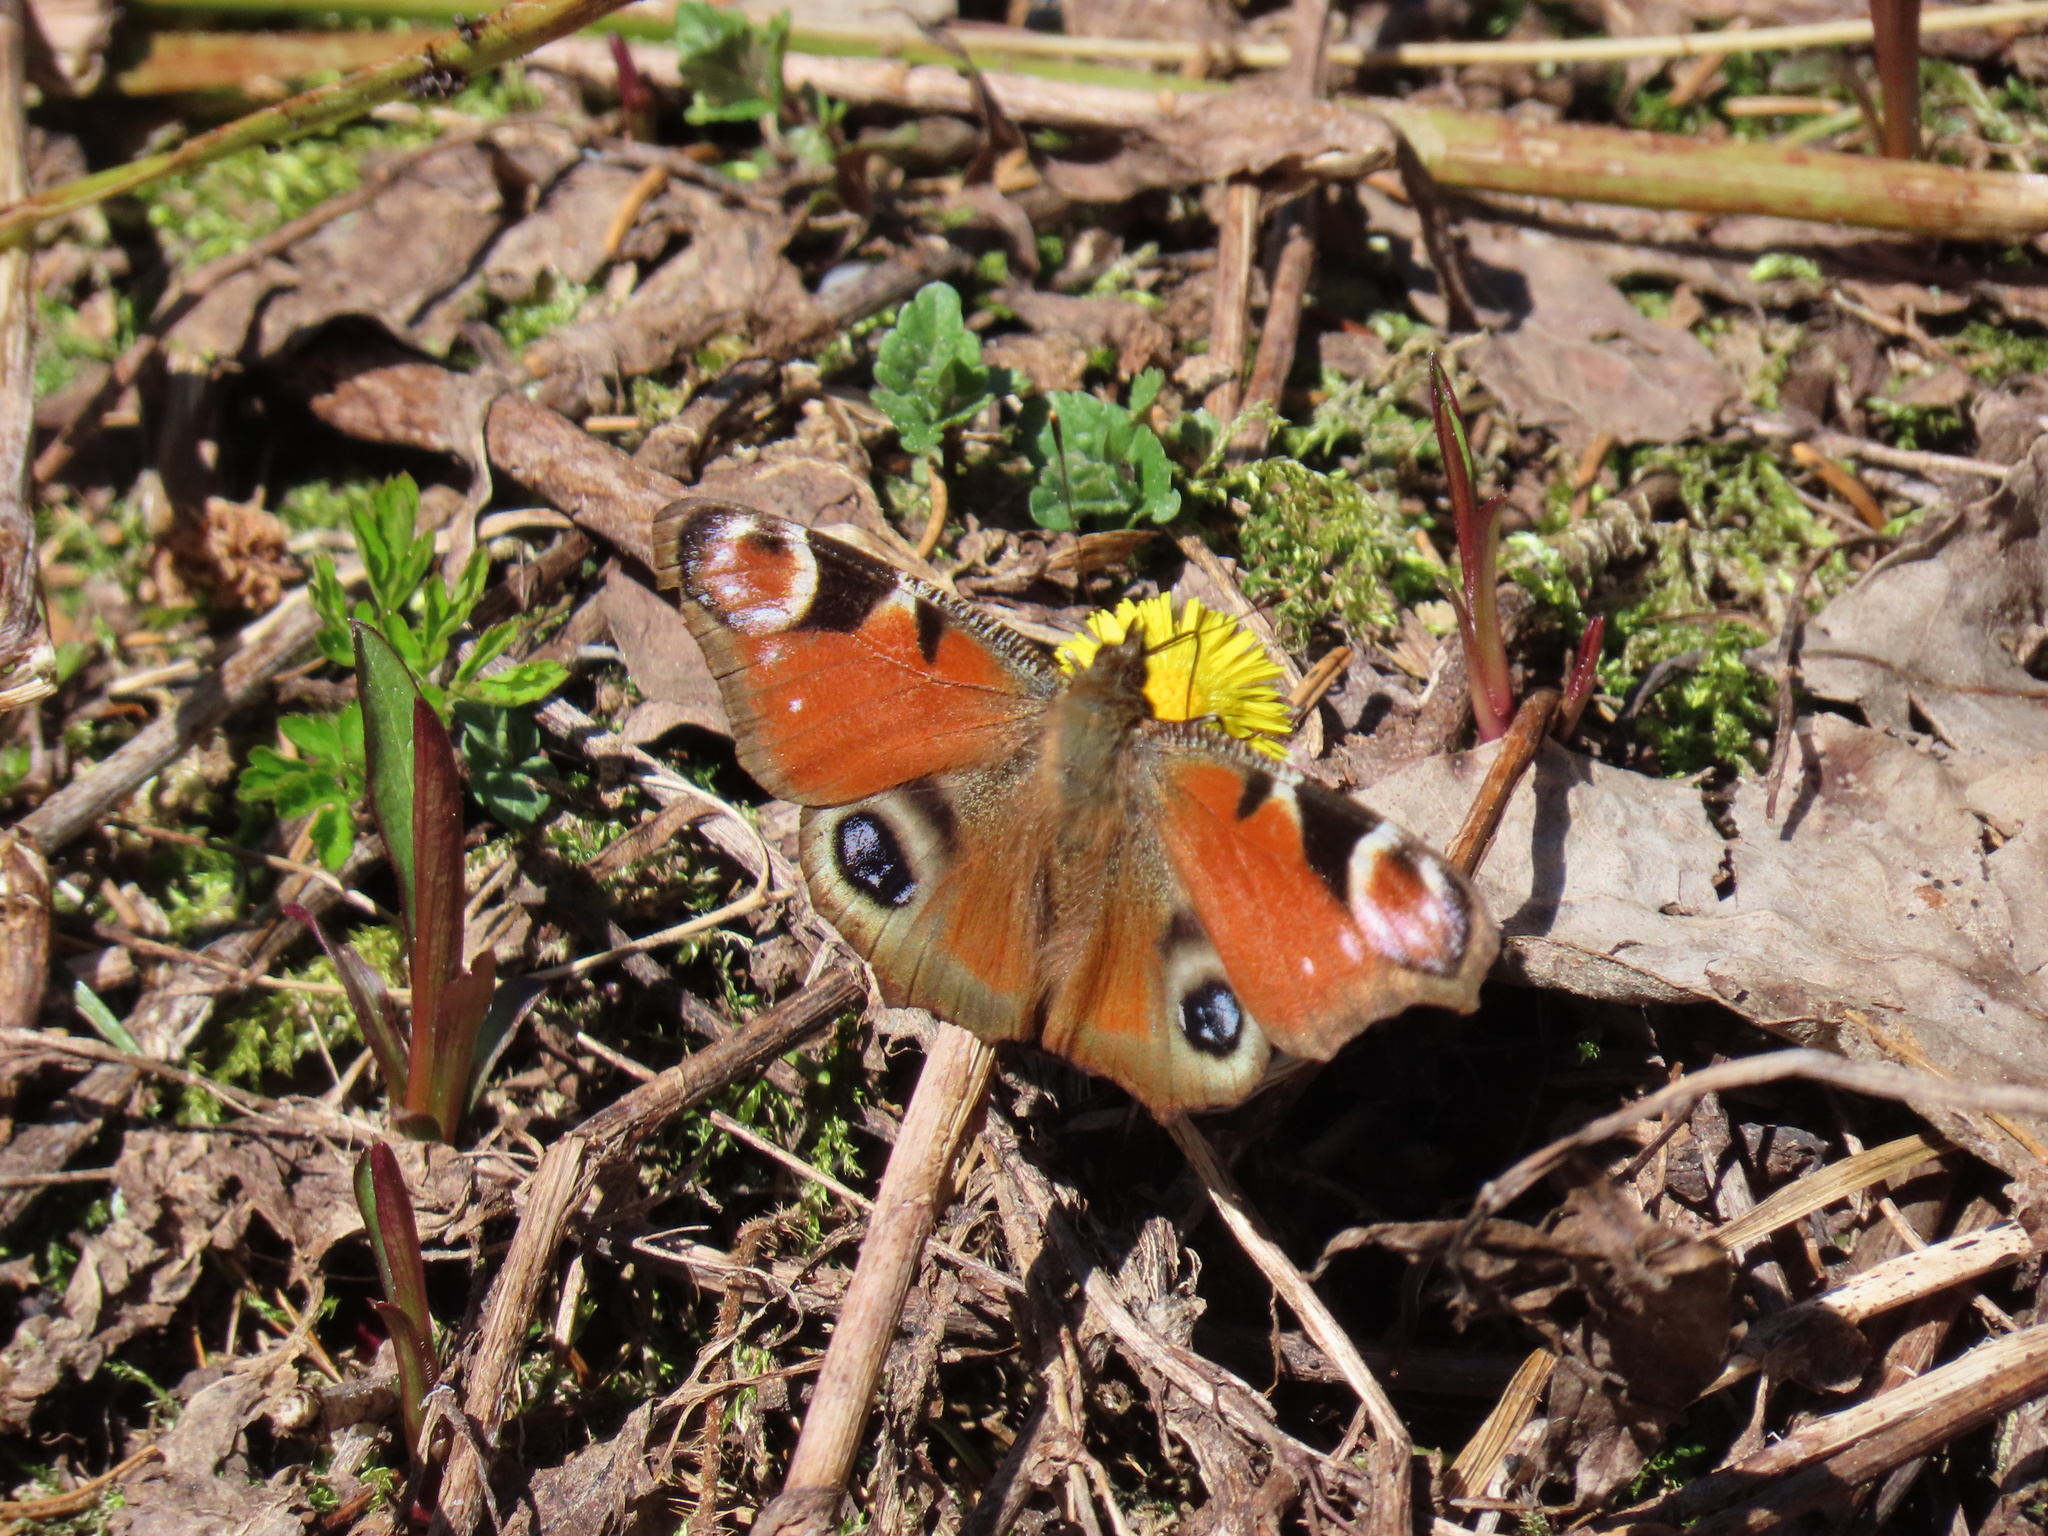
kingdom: Animalia
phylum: Arthropoda
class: Insecta
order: Lepidoptera
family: Nymphalidae
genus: Aglais
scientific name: Aglais io
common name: Peacock
